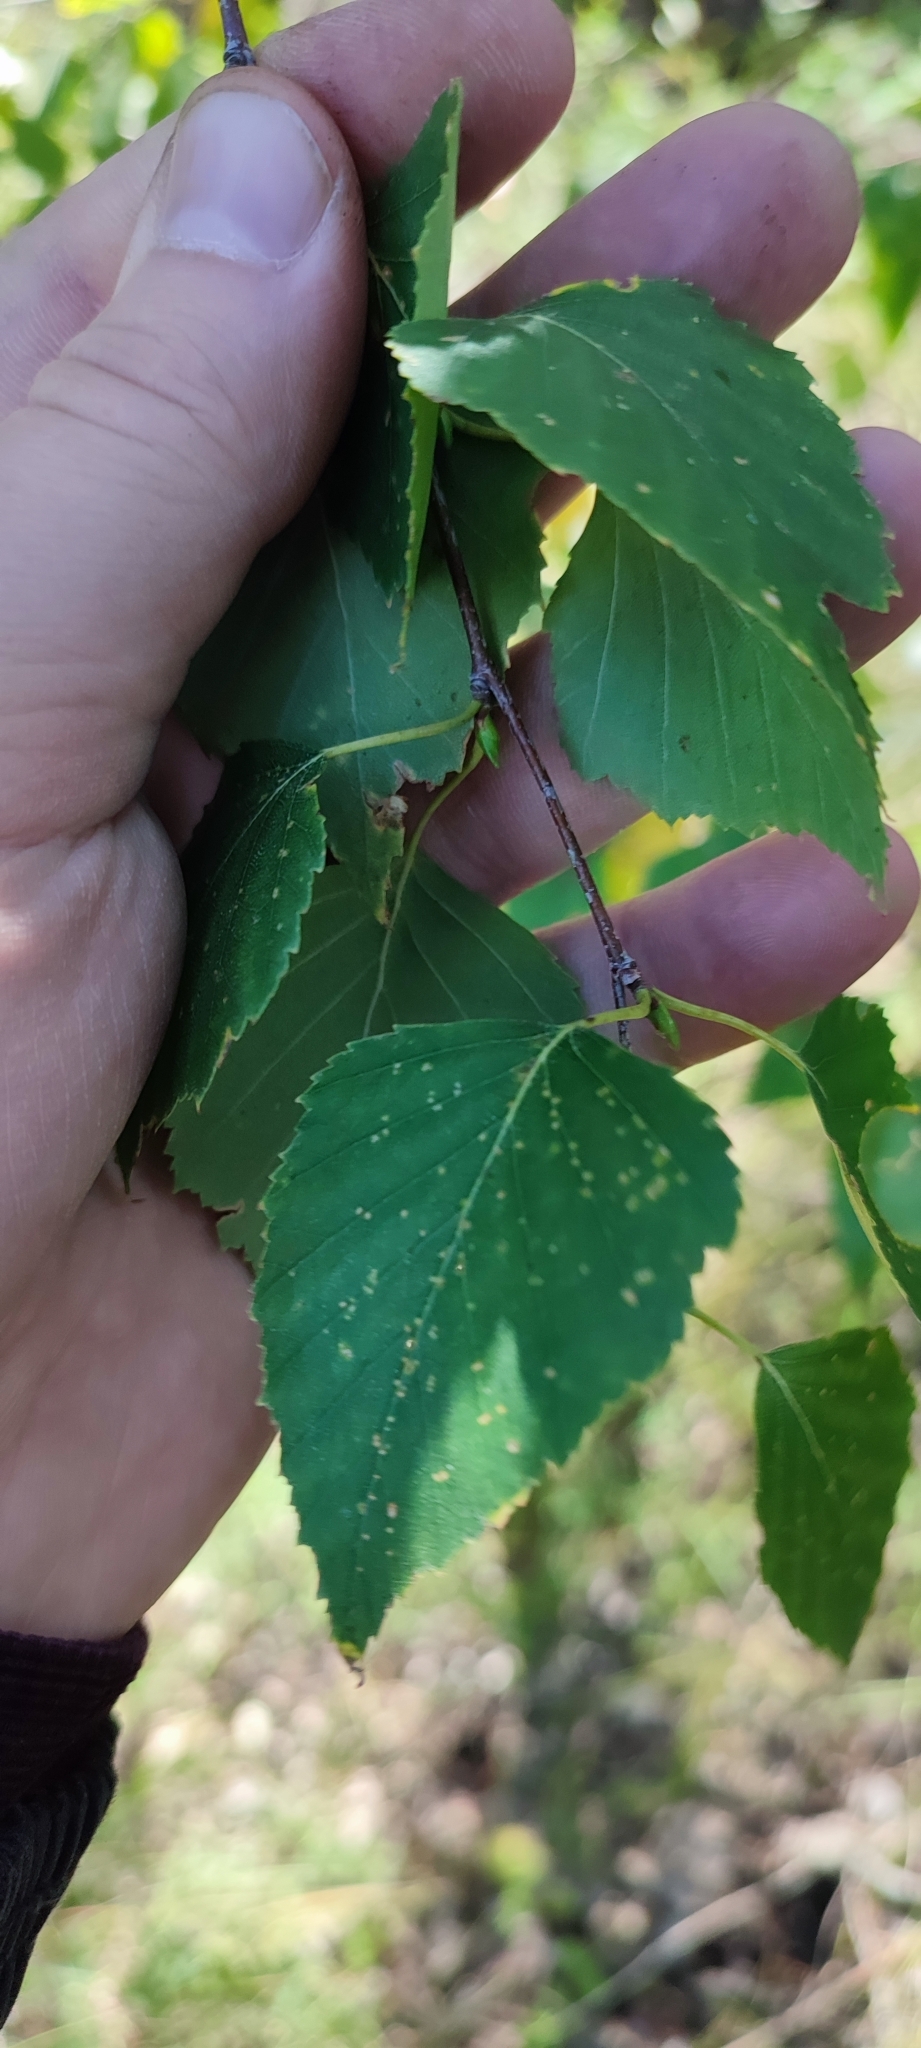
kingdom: Plantae
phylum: Tracheophyta
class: Magnoliopsida
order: Fagales
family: Betulaceae
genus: Betula
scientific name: Betula pendula
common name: Silver birch
